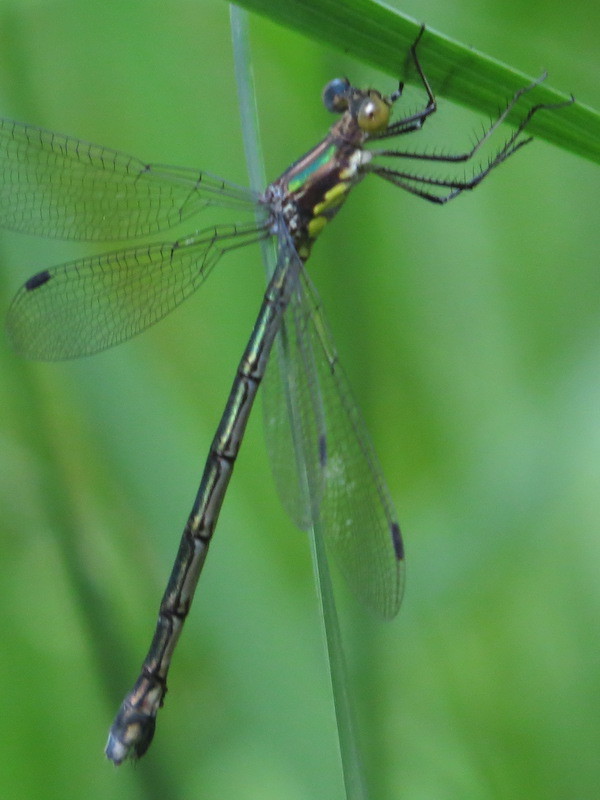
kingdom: Animalia
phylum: Arthropoda
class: Insecta
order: Odonata
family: Lestidae
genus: Lestes
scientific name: Lestes eurinus
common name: Amber-winged spreadwing
